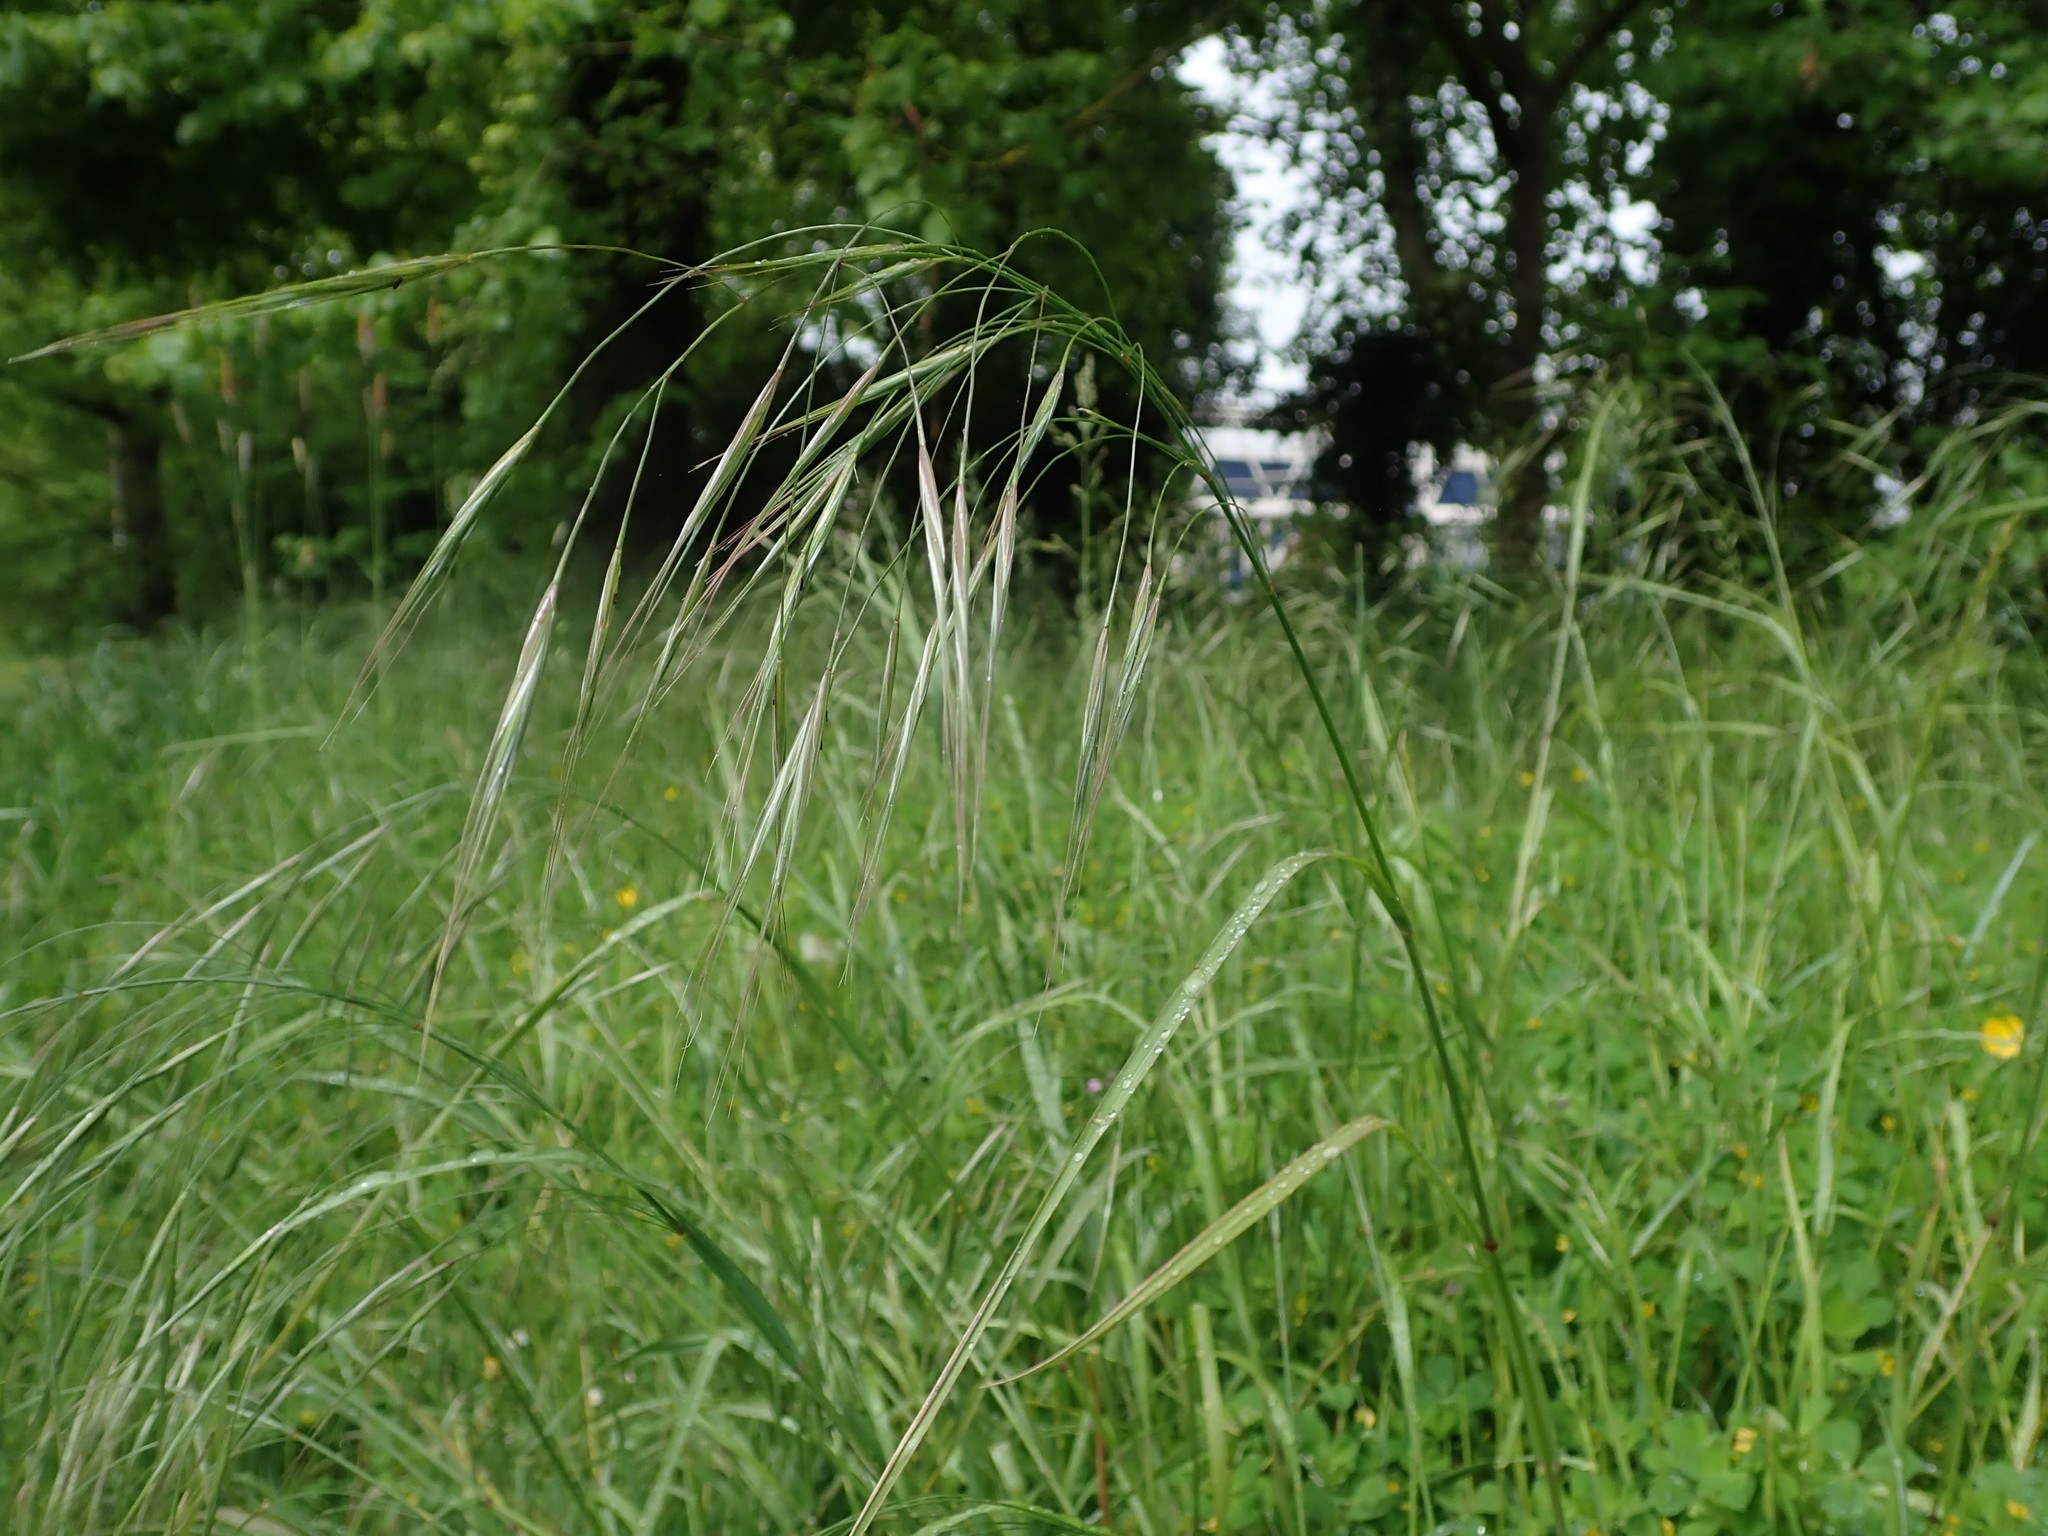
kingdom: Plantae
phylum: Tracheophyta
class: Liliopsida
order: Poales
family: Poaceae
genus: Bromus
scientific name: Bromus sterilis
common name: Poverty brome
